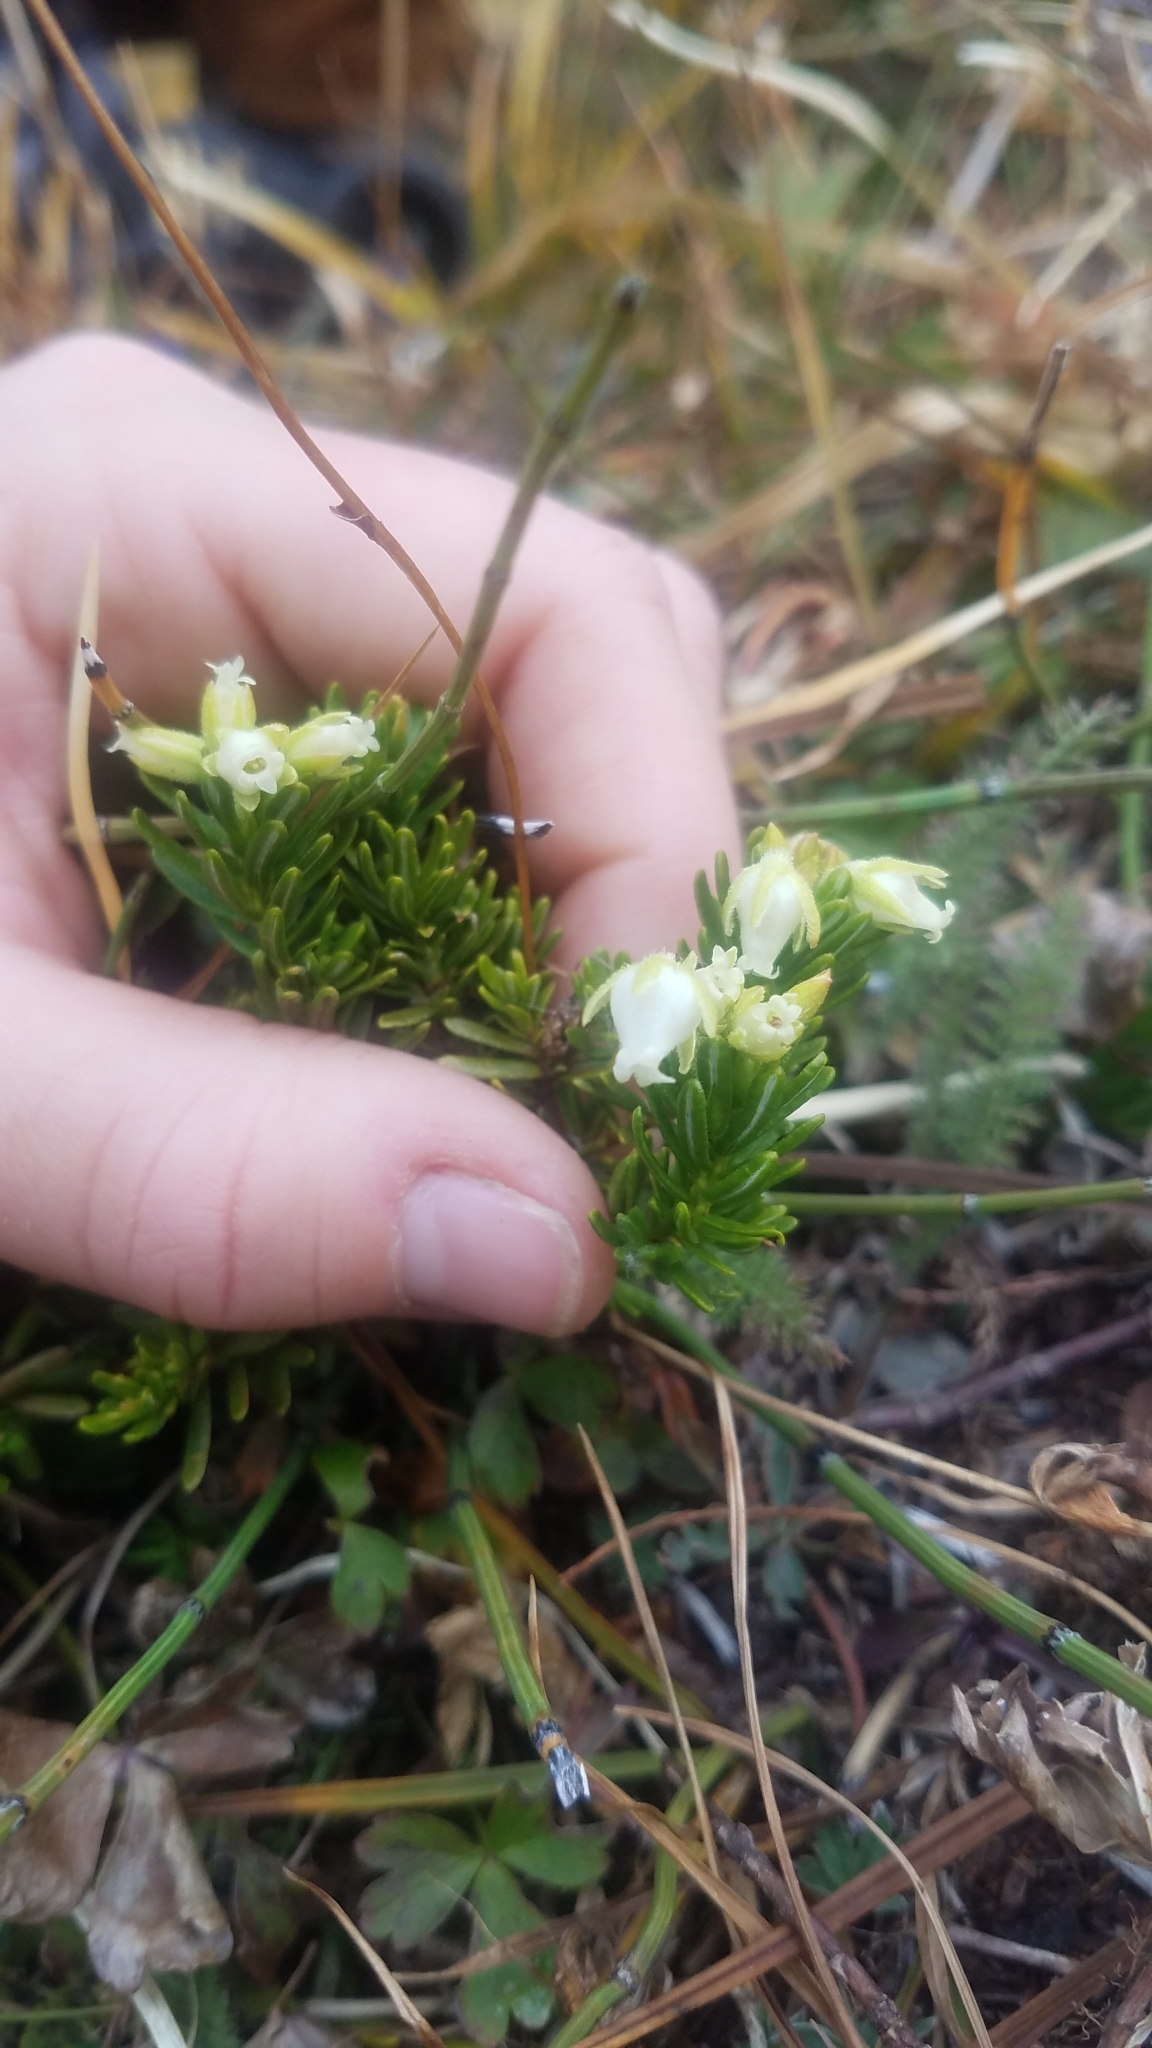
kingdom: Plantae
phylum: Tracheophyta
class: Magnoliopsida
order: Ericales
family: Ericaceae
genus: Phyllodoce
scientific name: Phyllodoce glanduliflora
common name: Cream mountain heather
